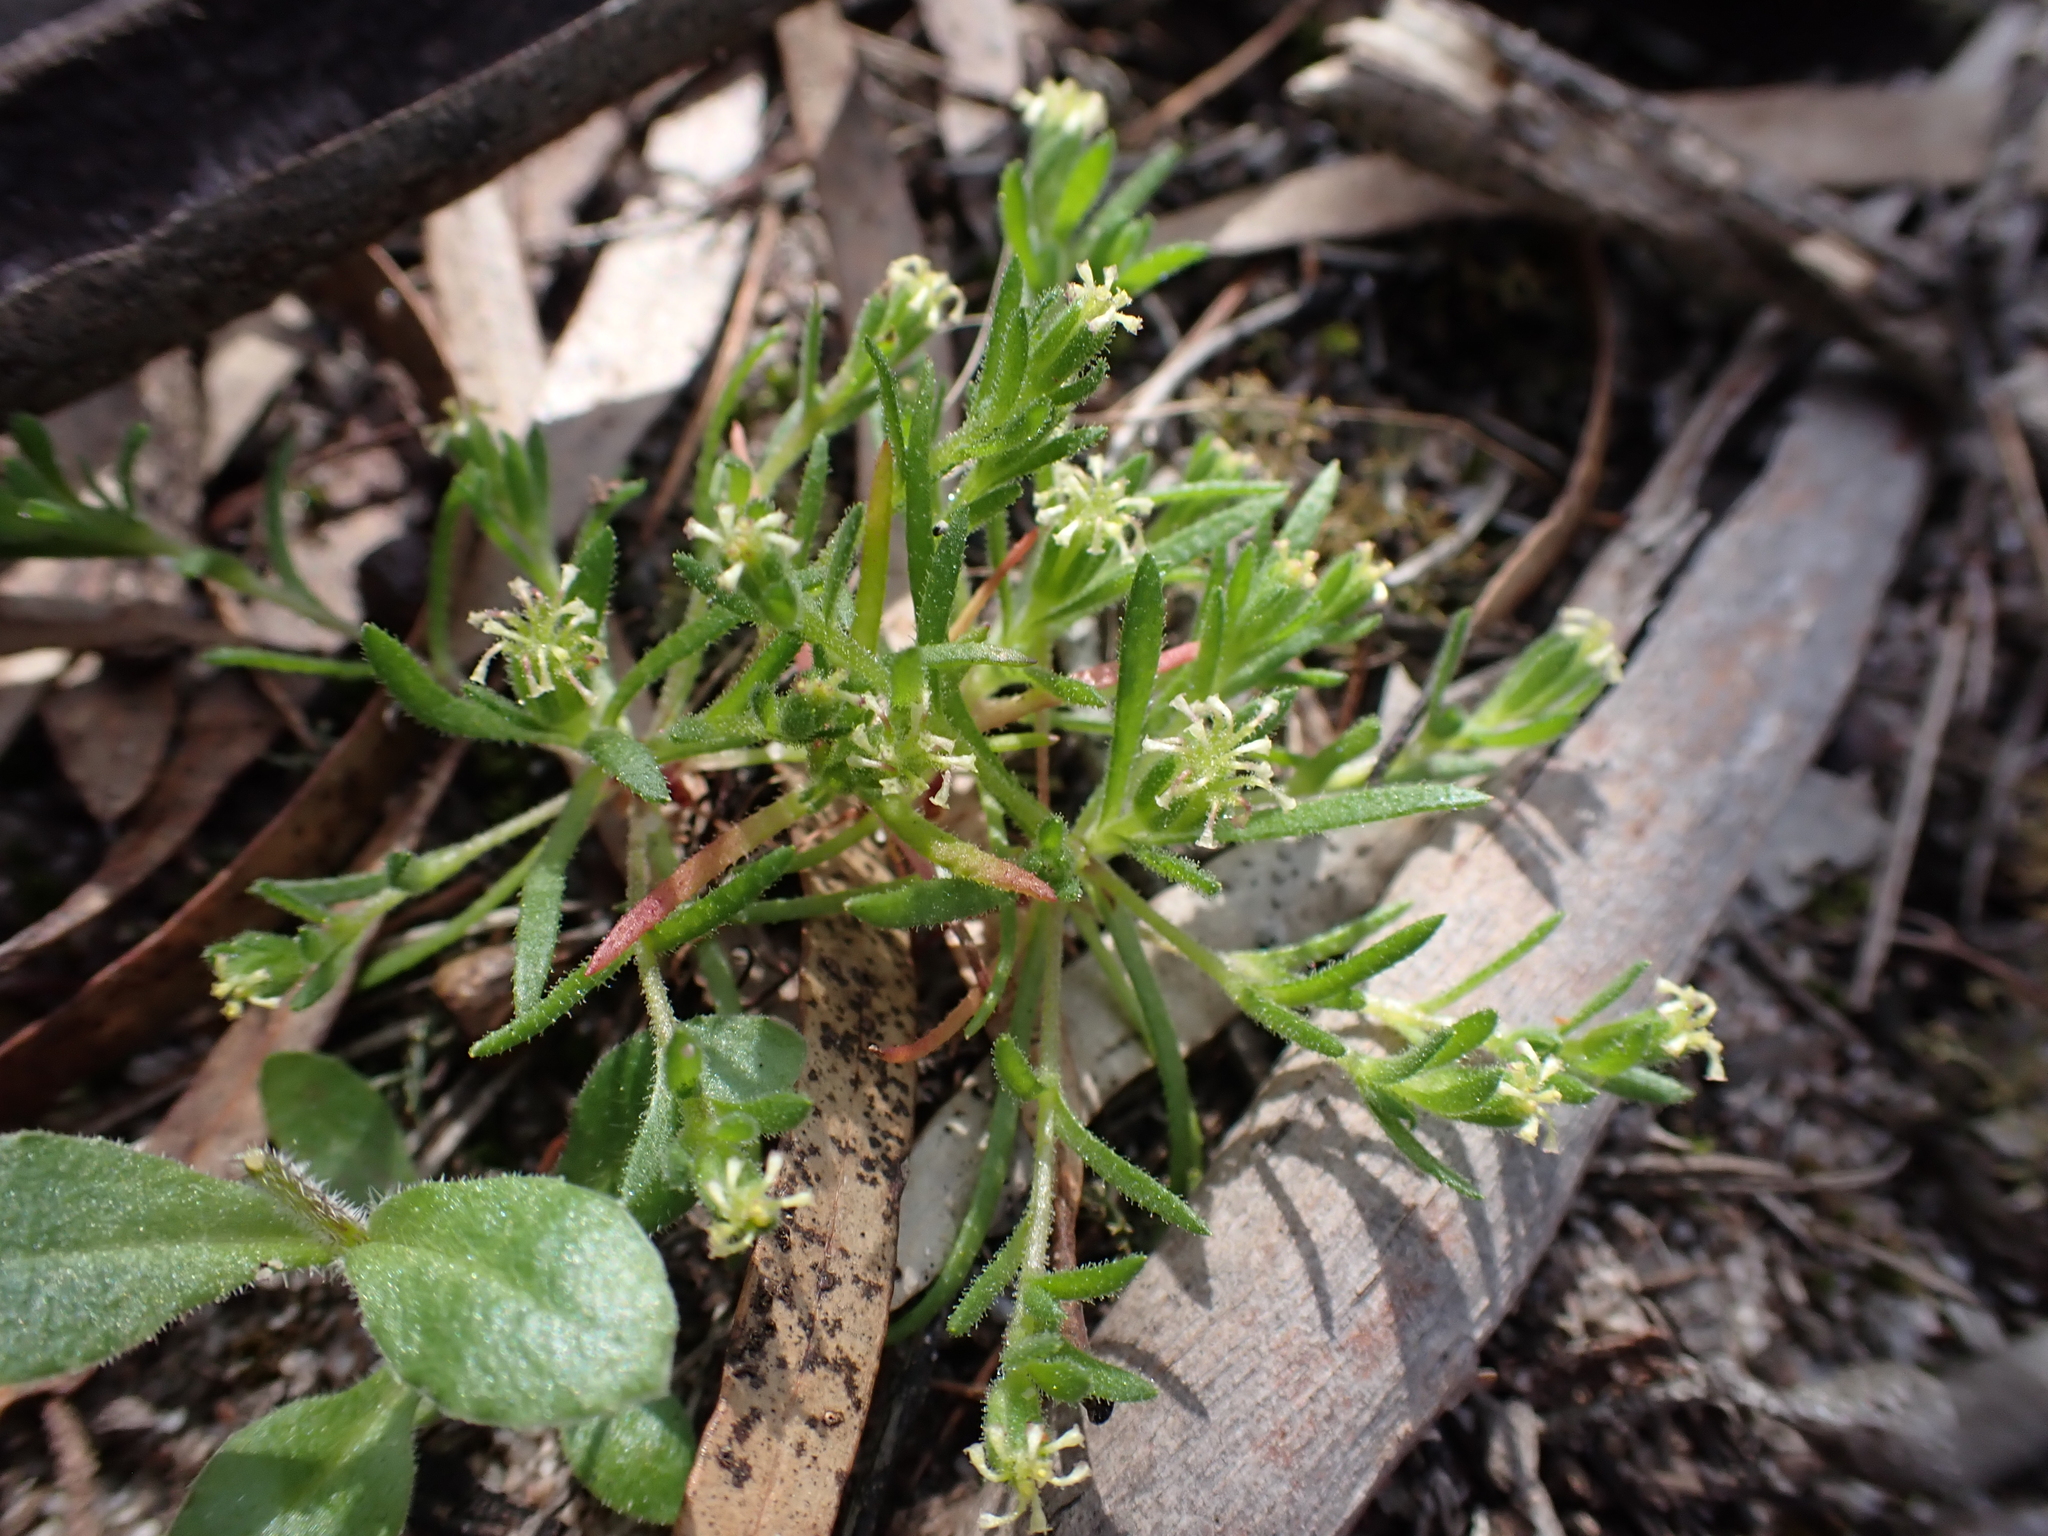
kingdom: Plantae
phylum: Tracheophyta
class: Magnoliopsida
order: Asterales
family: Asteraceae
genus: Millotia
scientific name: Millotia muelleri
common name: Common bow-flower
